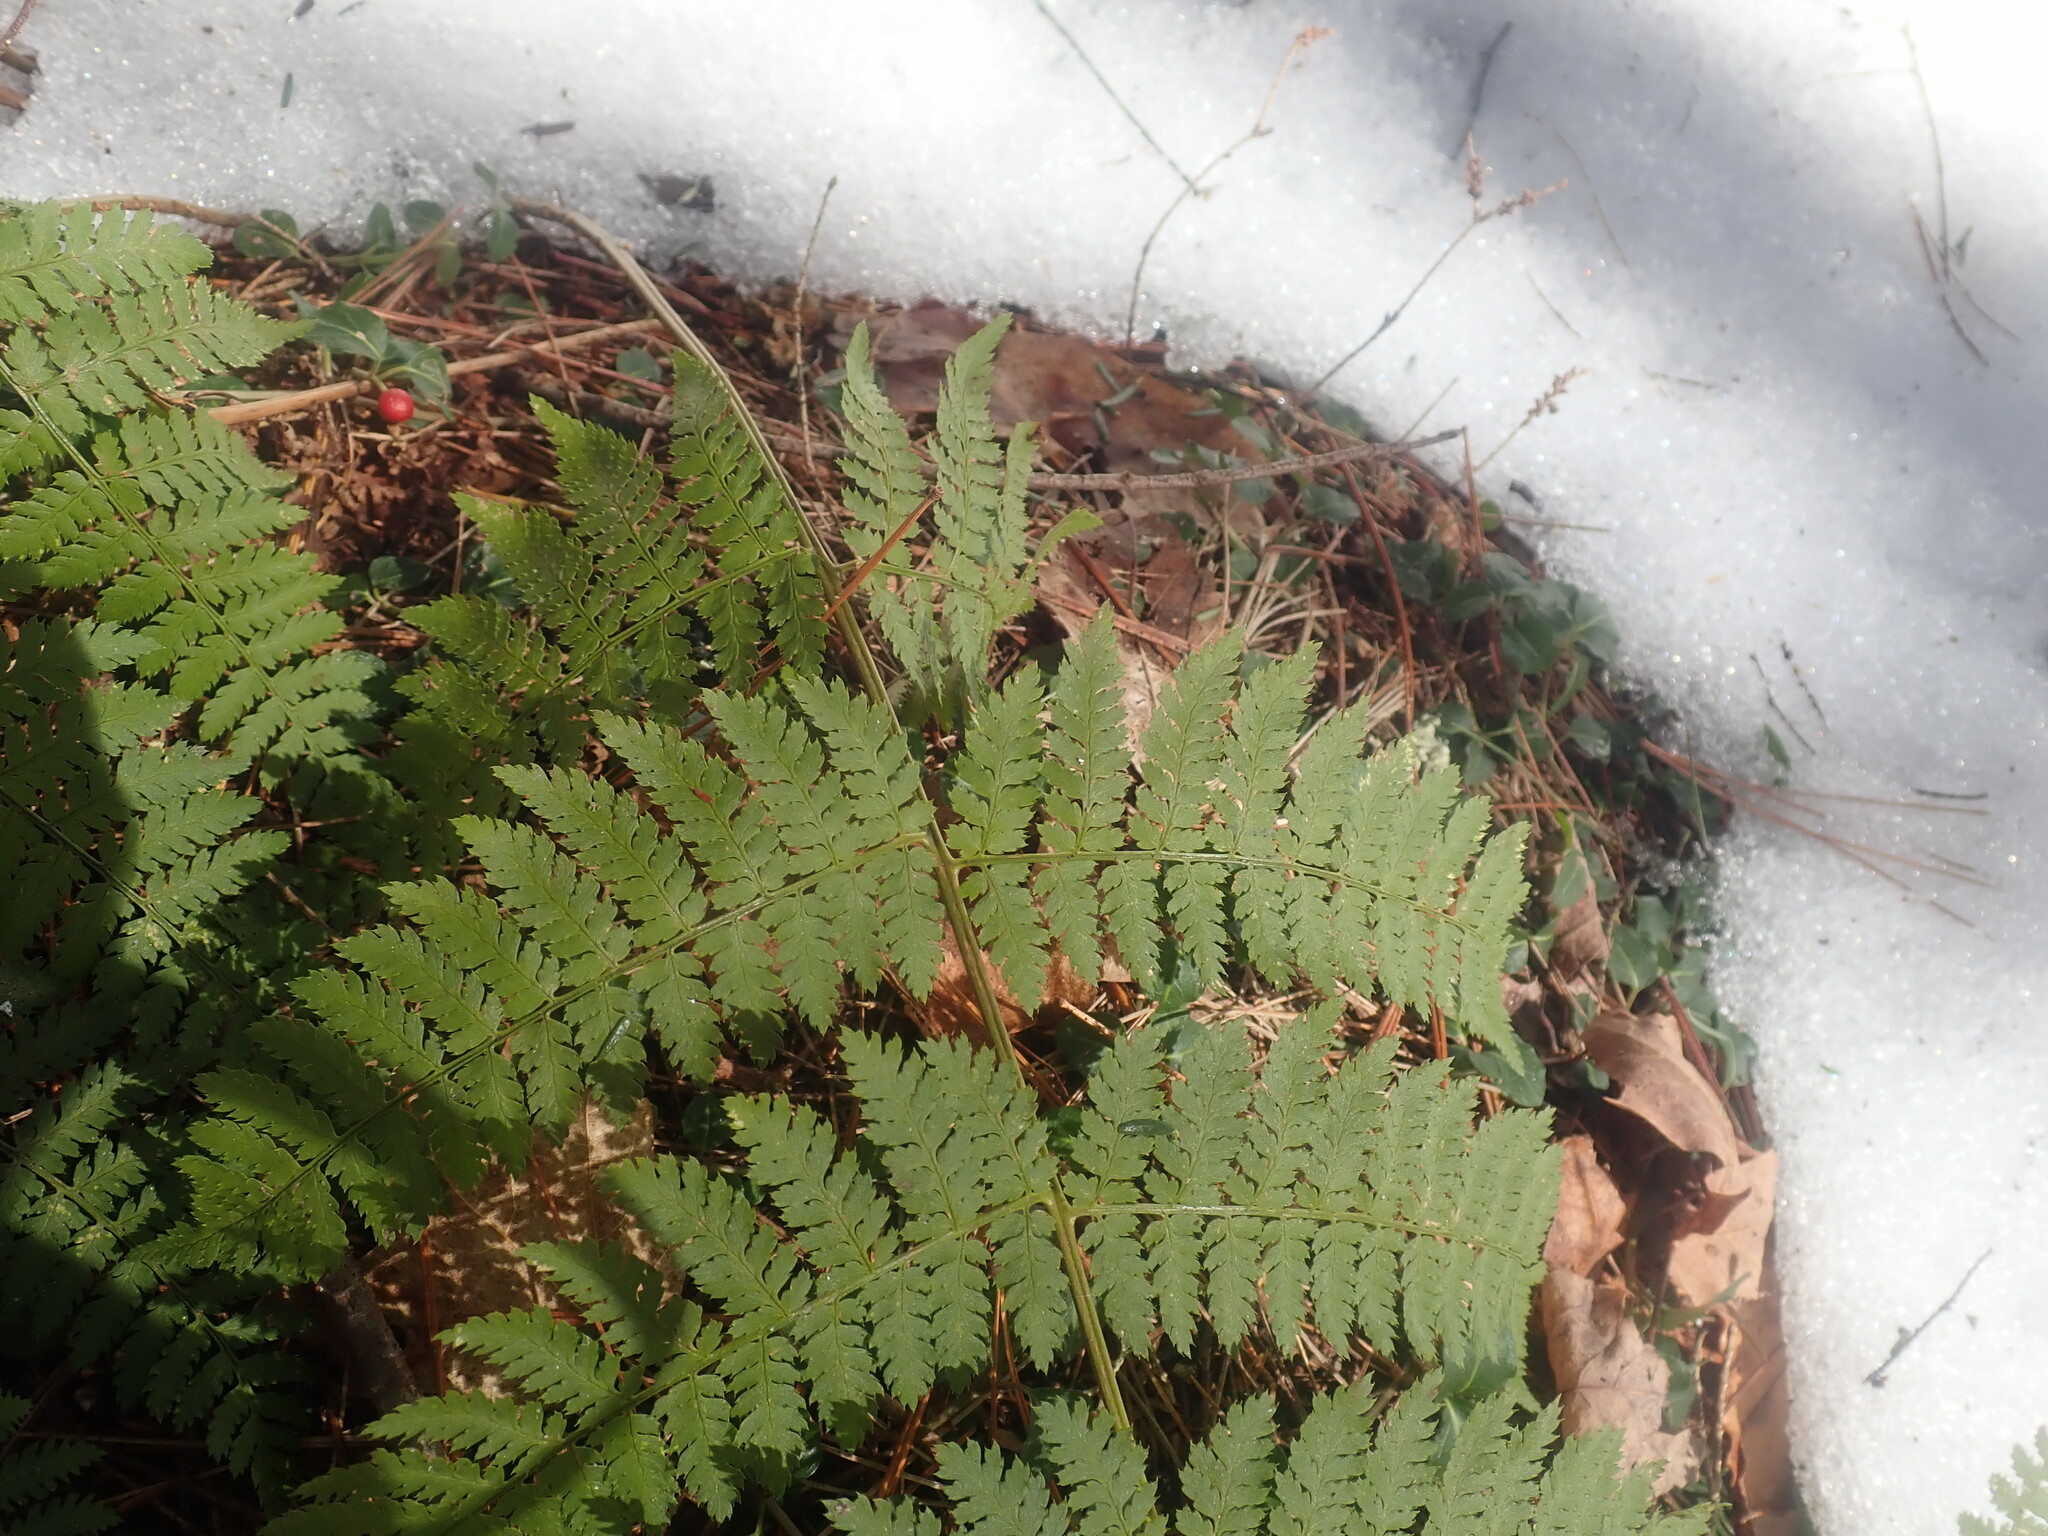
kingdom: Plantae
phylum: Tracheophyta
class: Polypodiopsida
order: Polypodiales
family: Dryopteridaceae
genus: Dryopteris
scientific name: Dryopteris intermedia
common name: Evergreen wood fern
